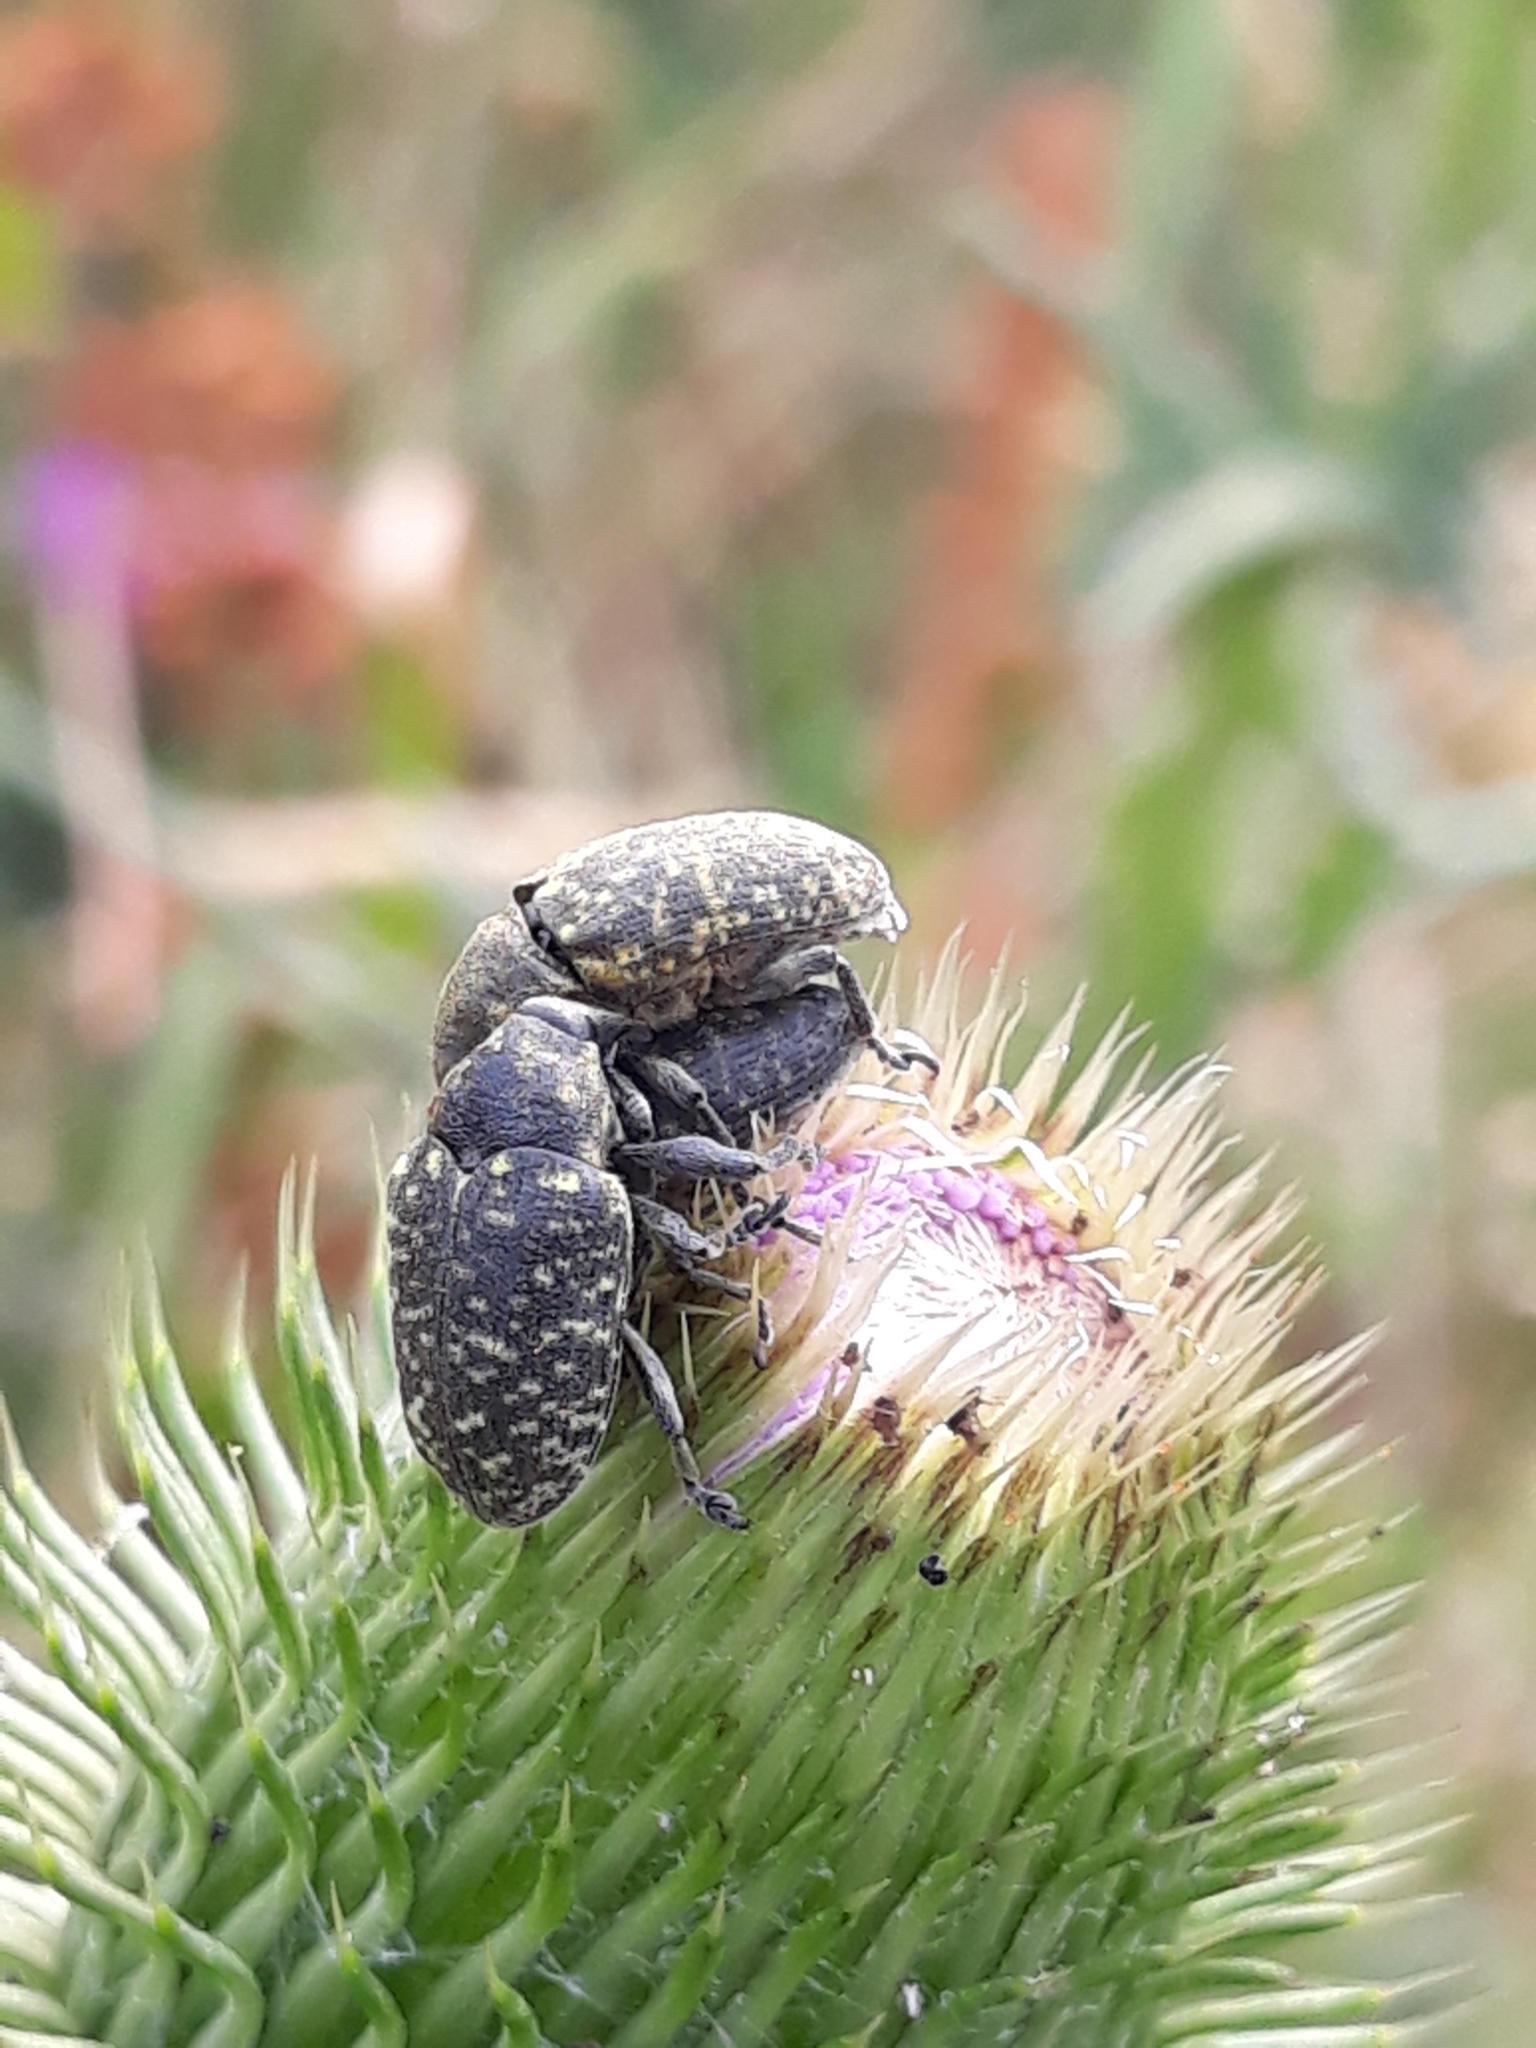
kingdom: Animalia
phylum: Arthropoda
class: Insecta
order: Coleoptera
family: Curculionidae
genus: Larinus
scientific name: Larinus turbinatus
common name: Weevil
